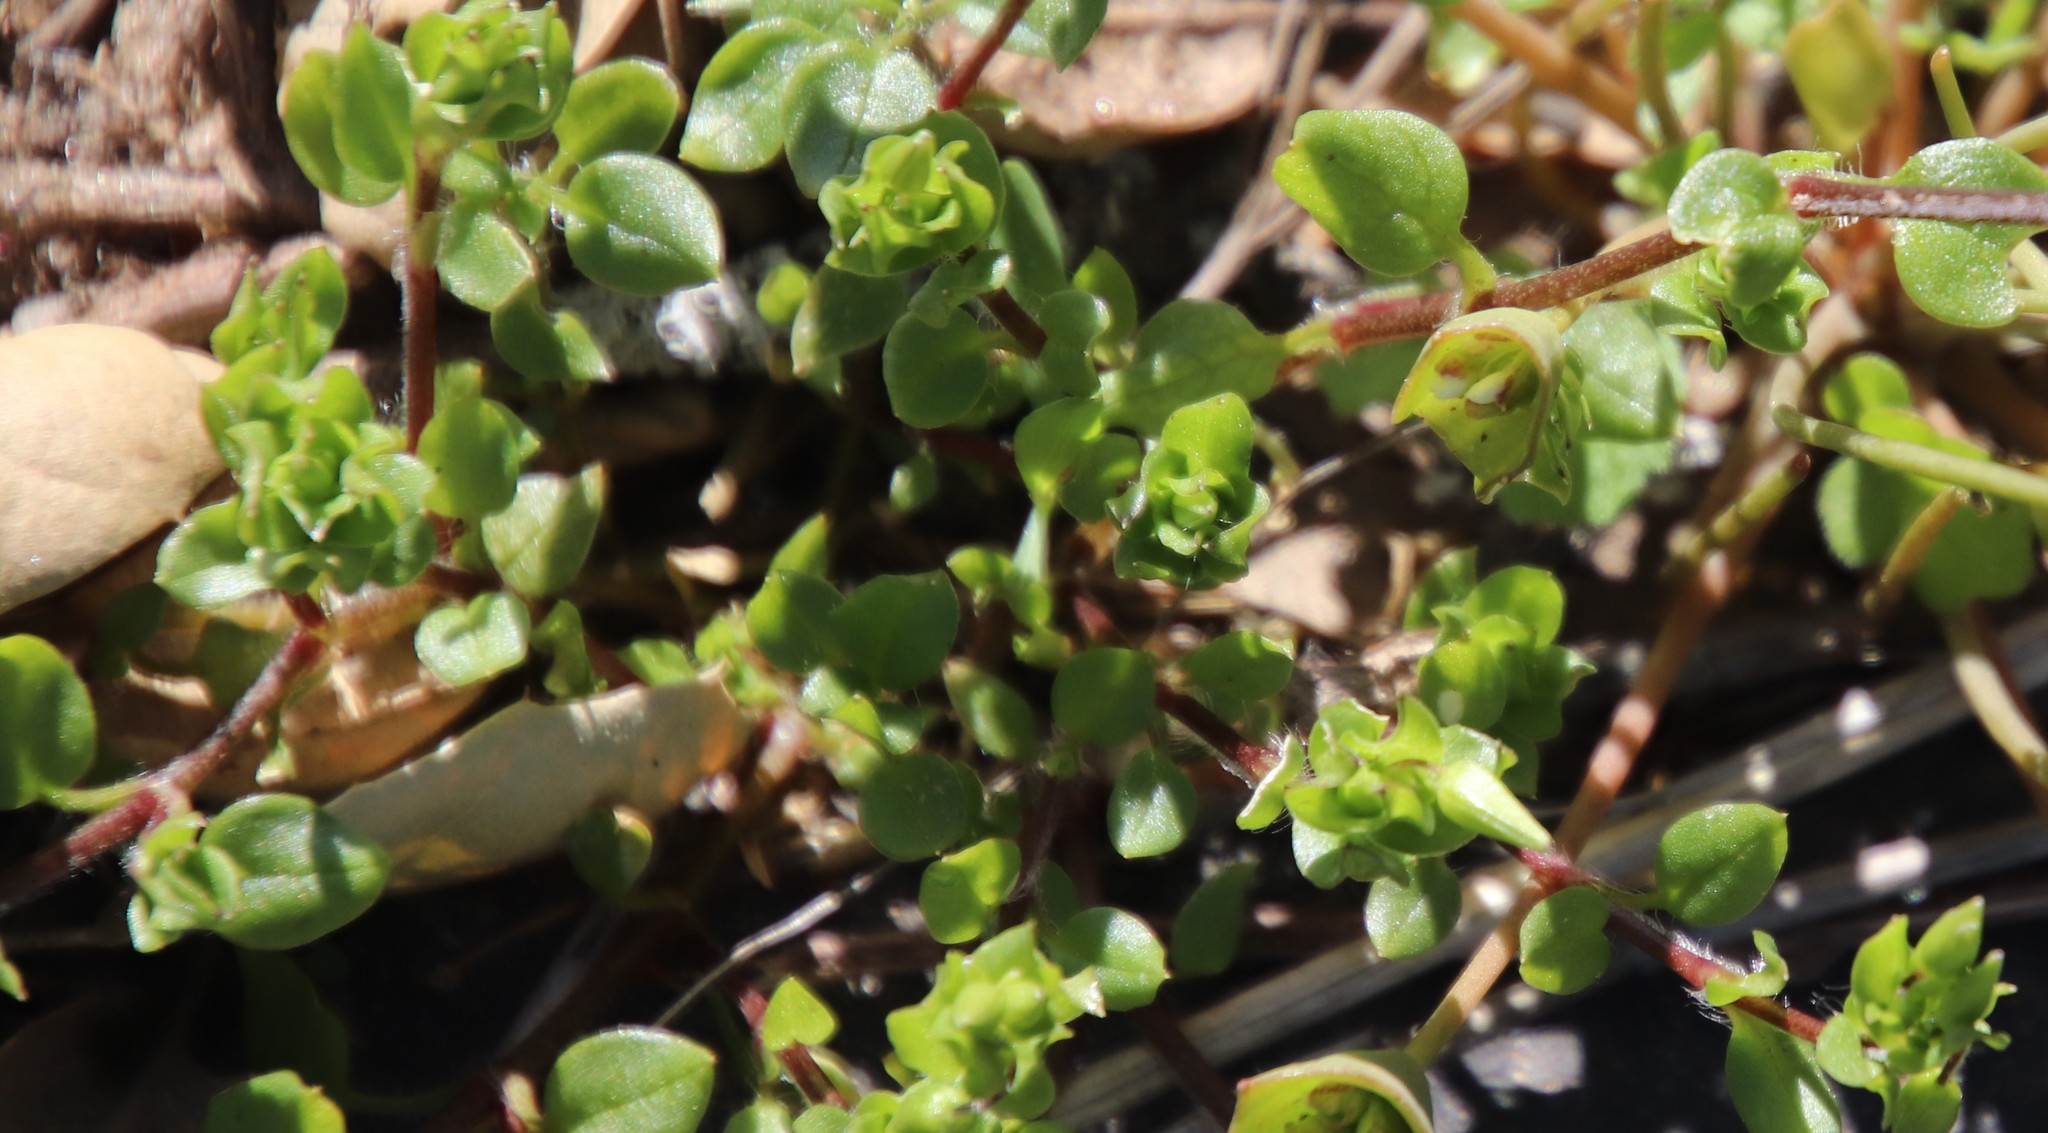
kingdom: Plantae
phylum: Tracheophyta
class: Magnoliopsida
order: Caryophyllales
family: Caryophyllaceae
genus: Stellaria
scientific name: Stellaria media
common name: Common chickweed
